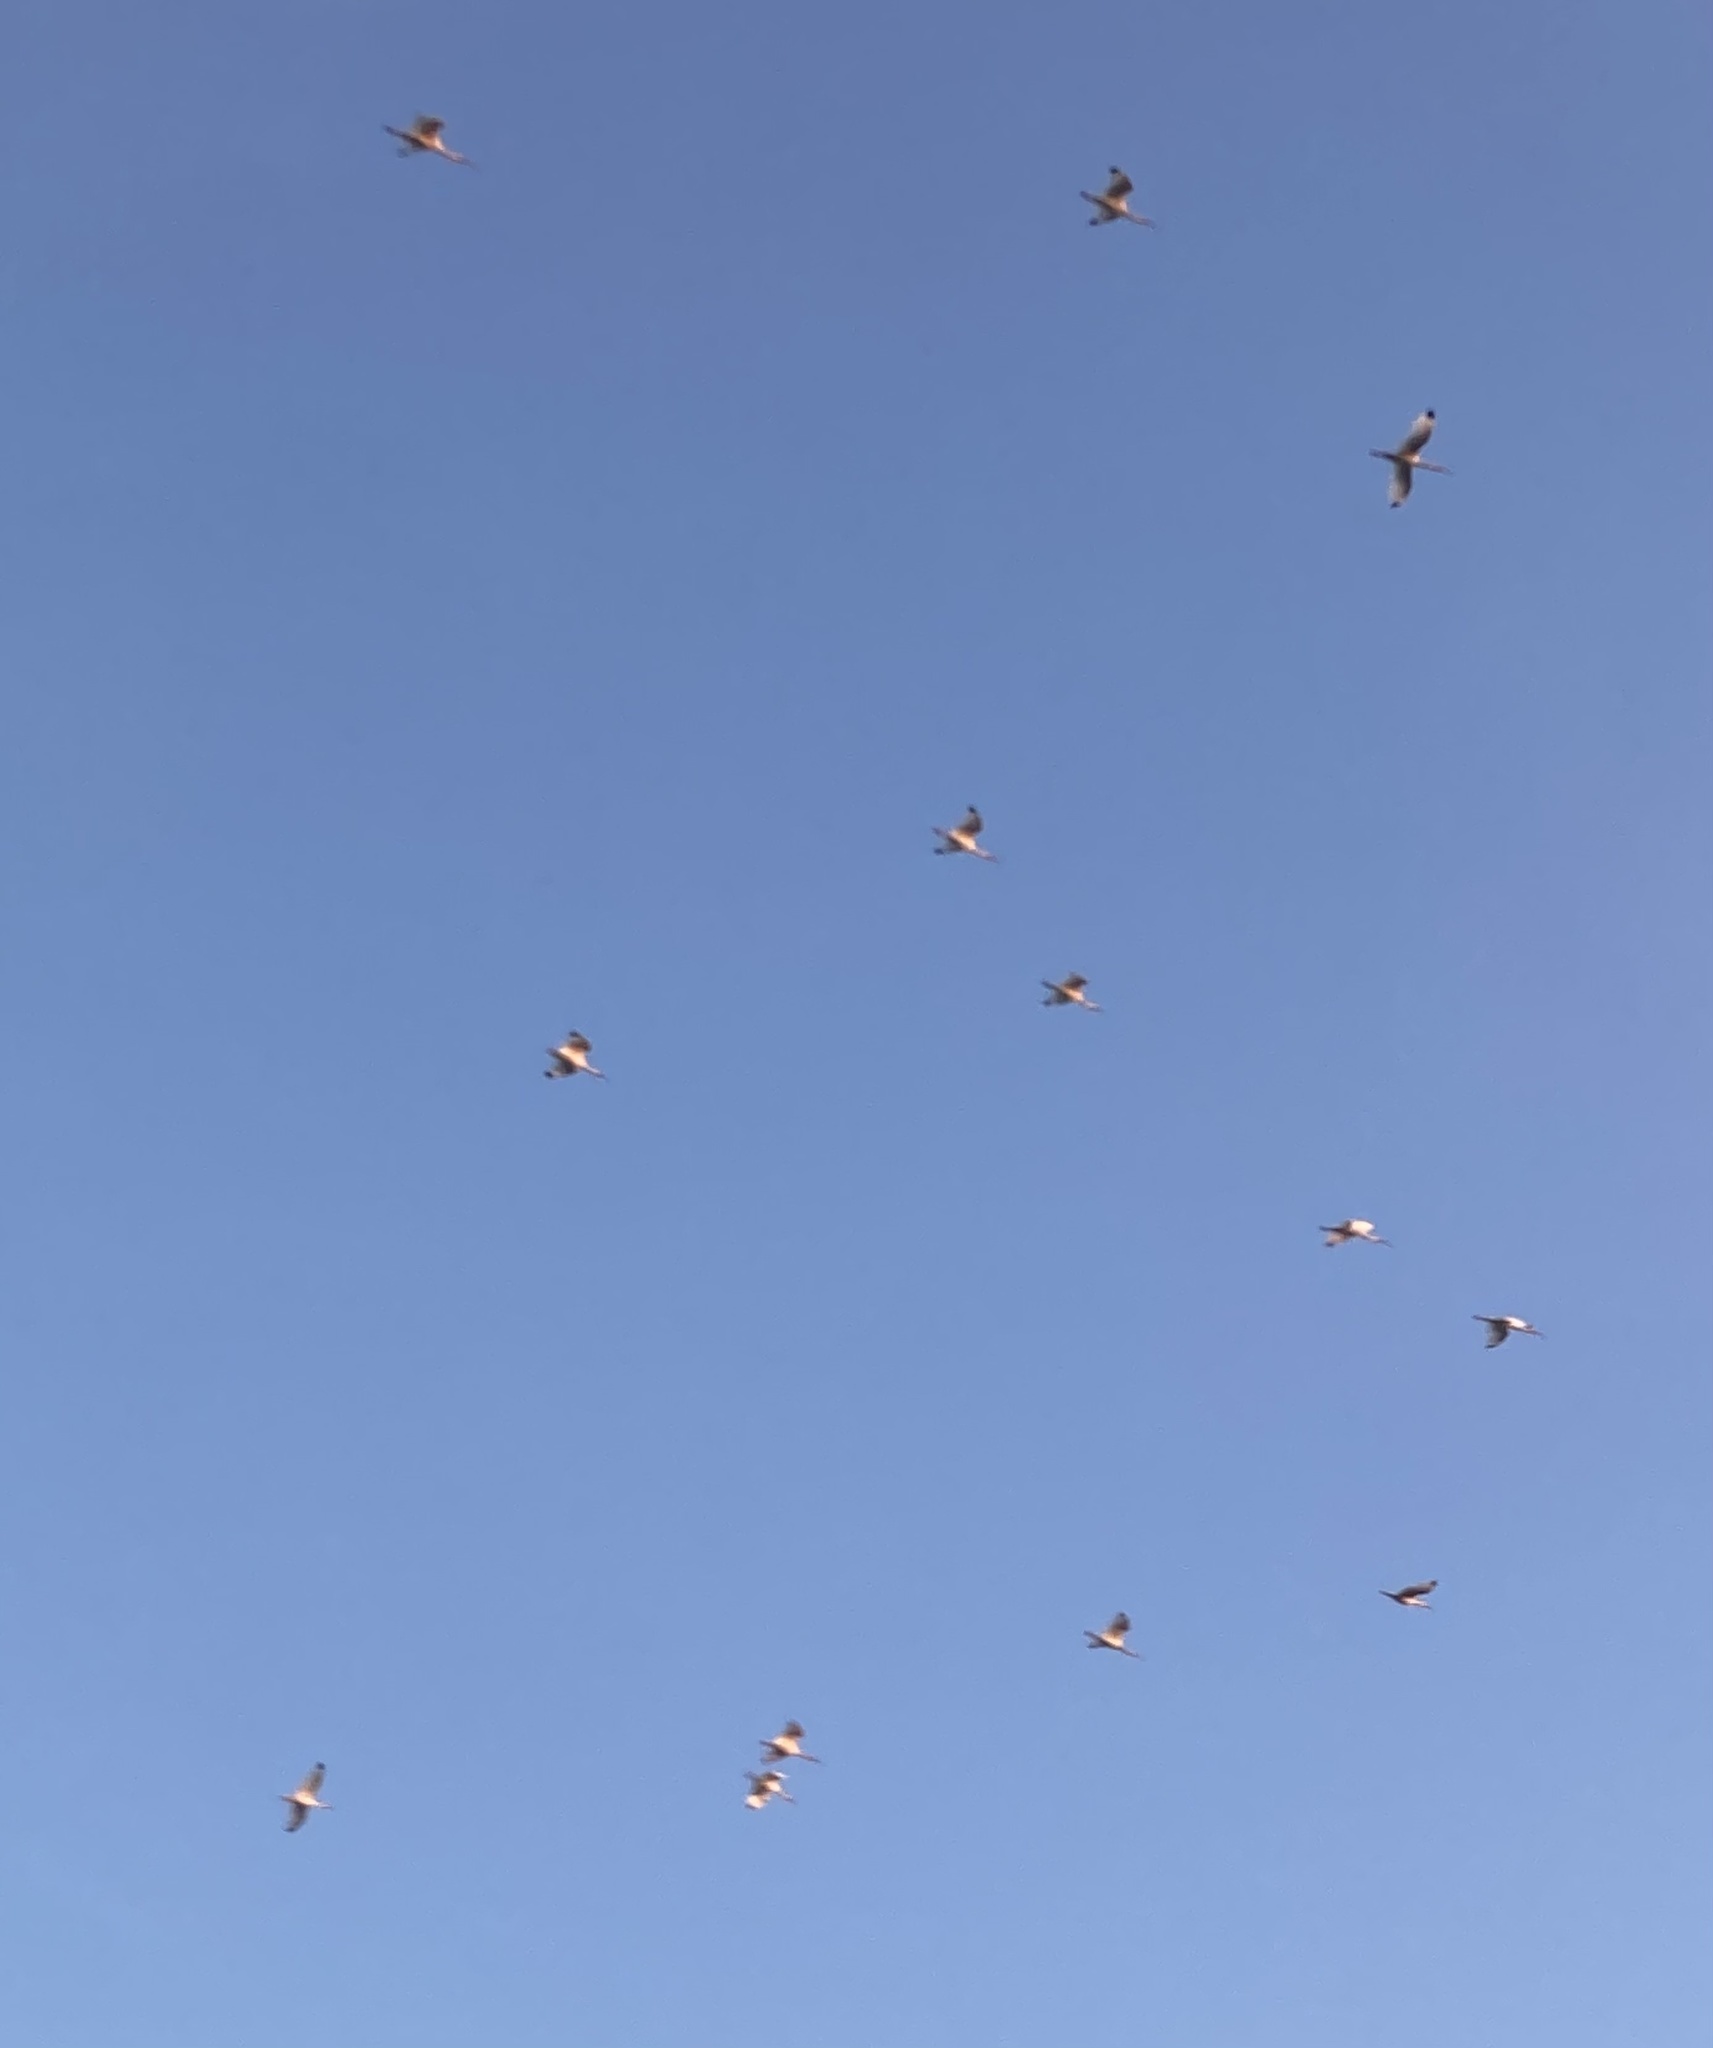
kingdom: Animalia
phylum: Chordata
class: Aves
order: Pelecaniformes
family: Threskiornithidae
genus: Eudocimus
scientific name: Eudocimus albus
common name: White ibis
